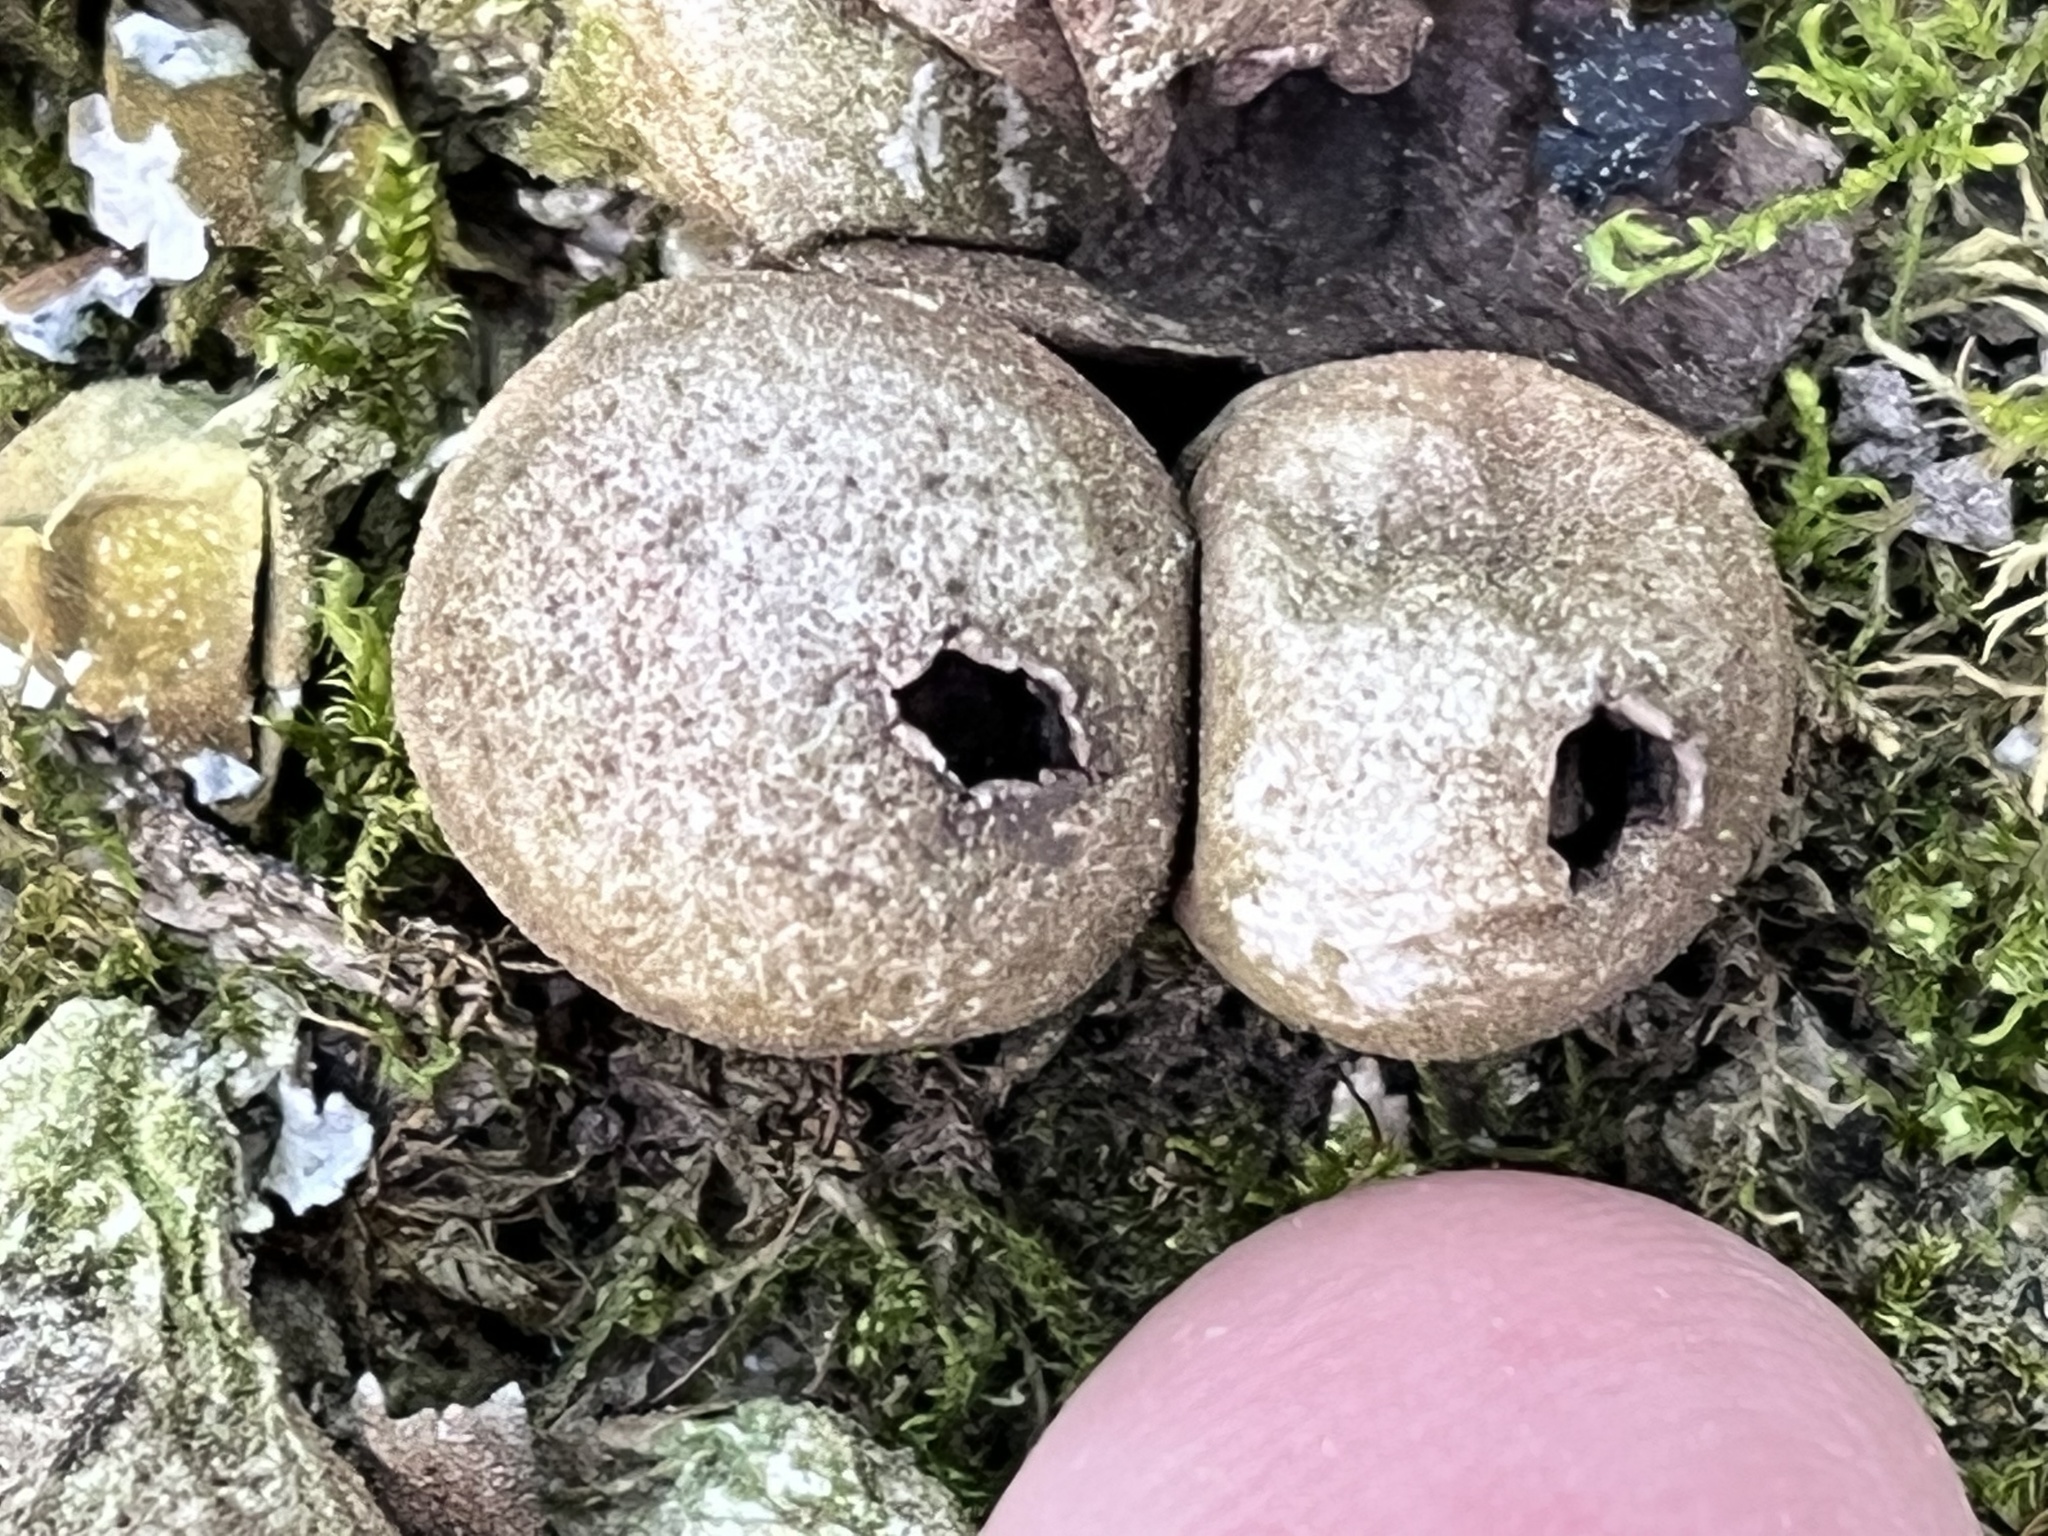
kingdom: Fungi
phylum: Basidiomycota
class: Agaricomycetes
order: Agaricales
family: Lycoperdaceae
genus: Apioperdon
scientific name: Apioperdon pyriforme
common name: Pear-shaped puffball
